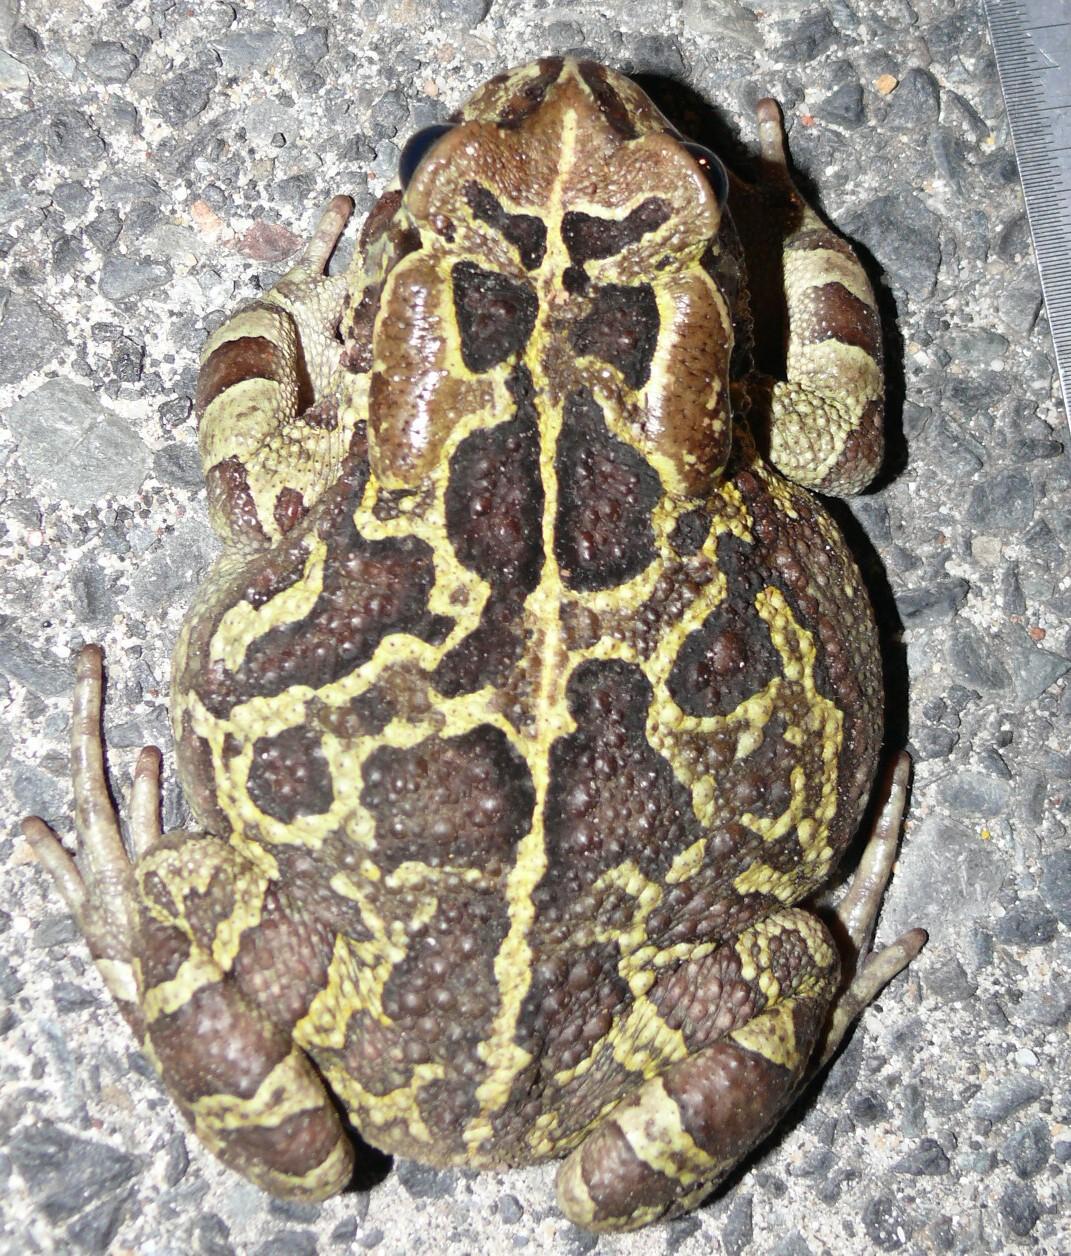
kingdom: Animalia
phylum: Chordata
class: Amphibia
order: Anura
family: Bufonidae
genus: Sclerophrys
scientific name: Sclerophrys pantherina
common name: Panther toad
